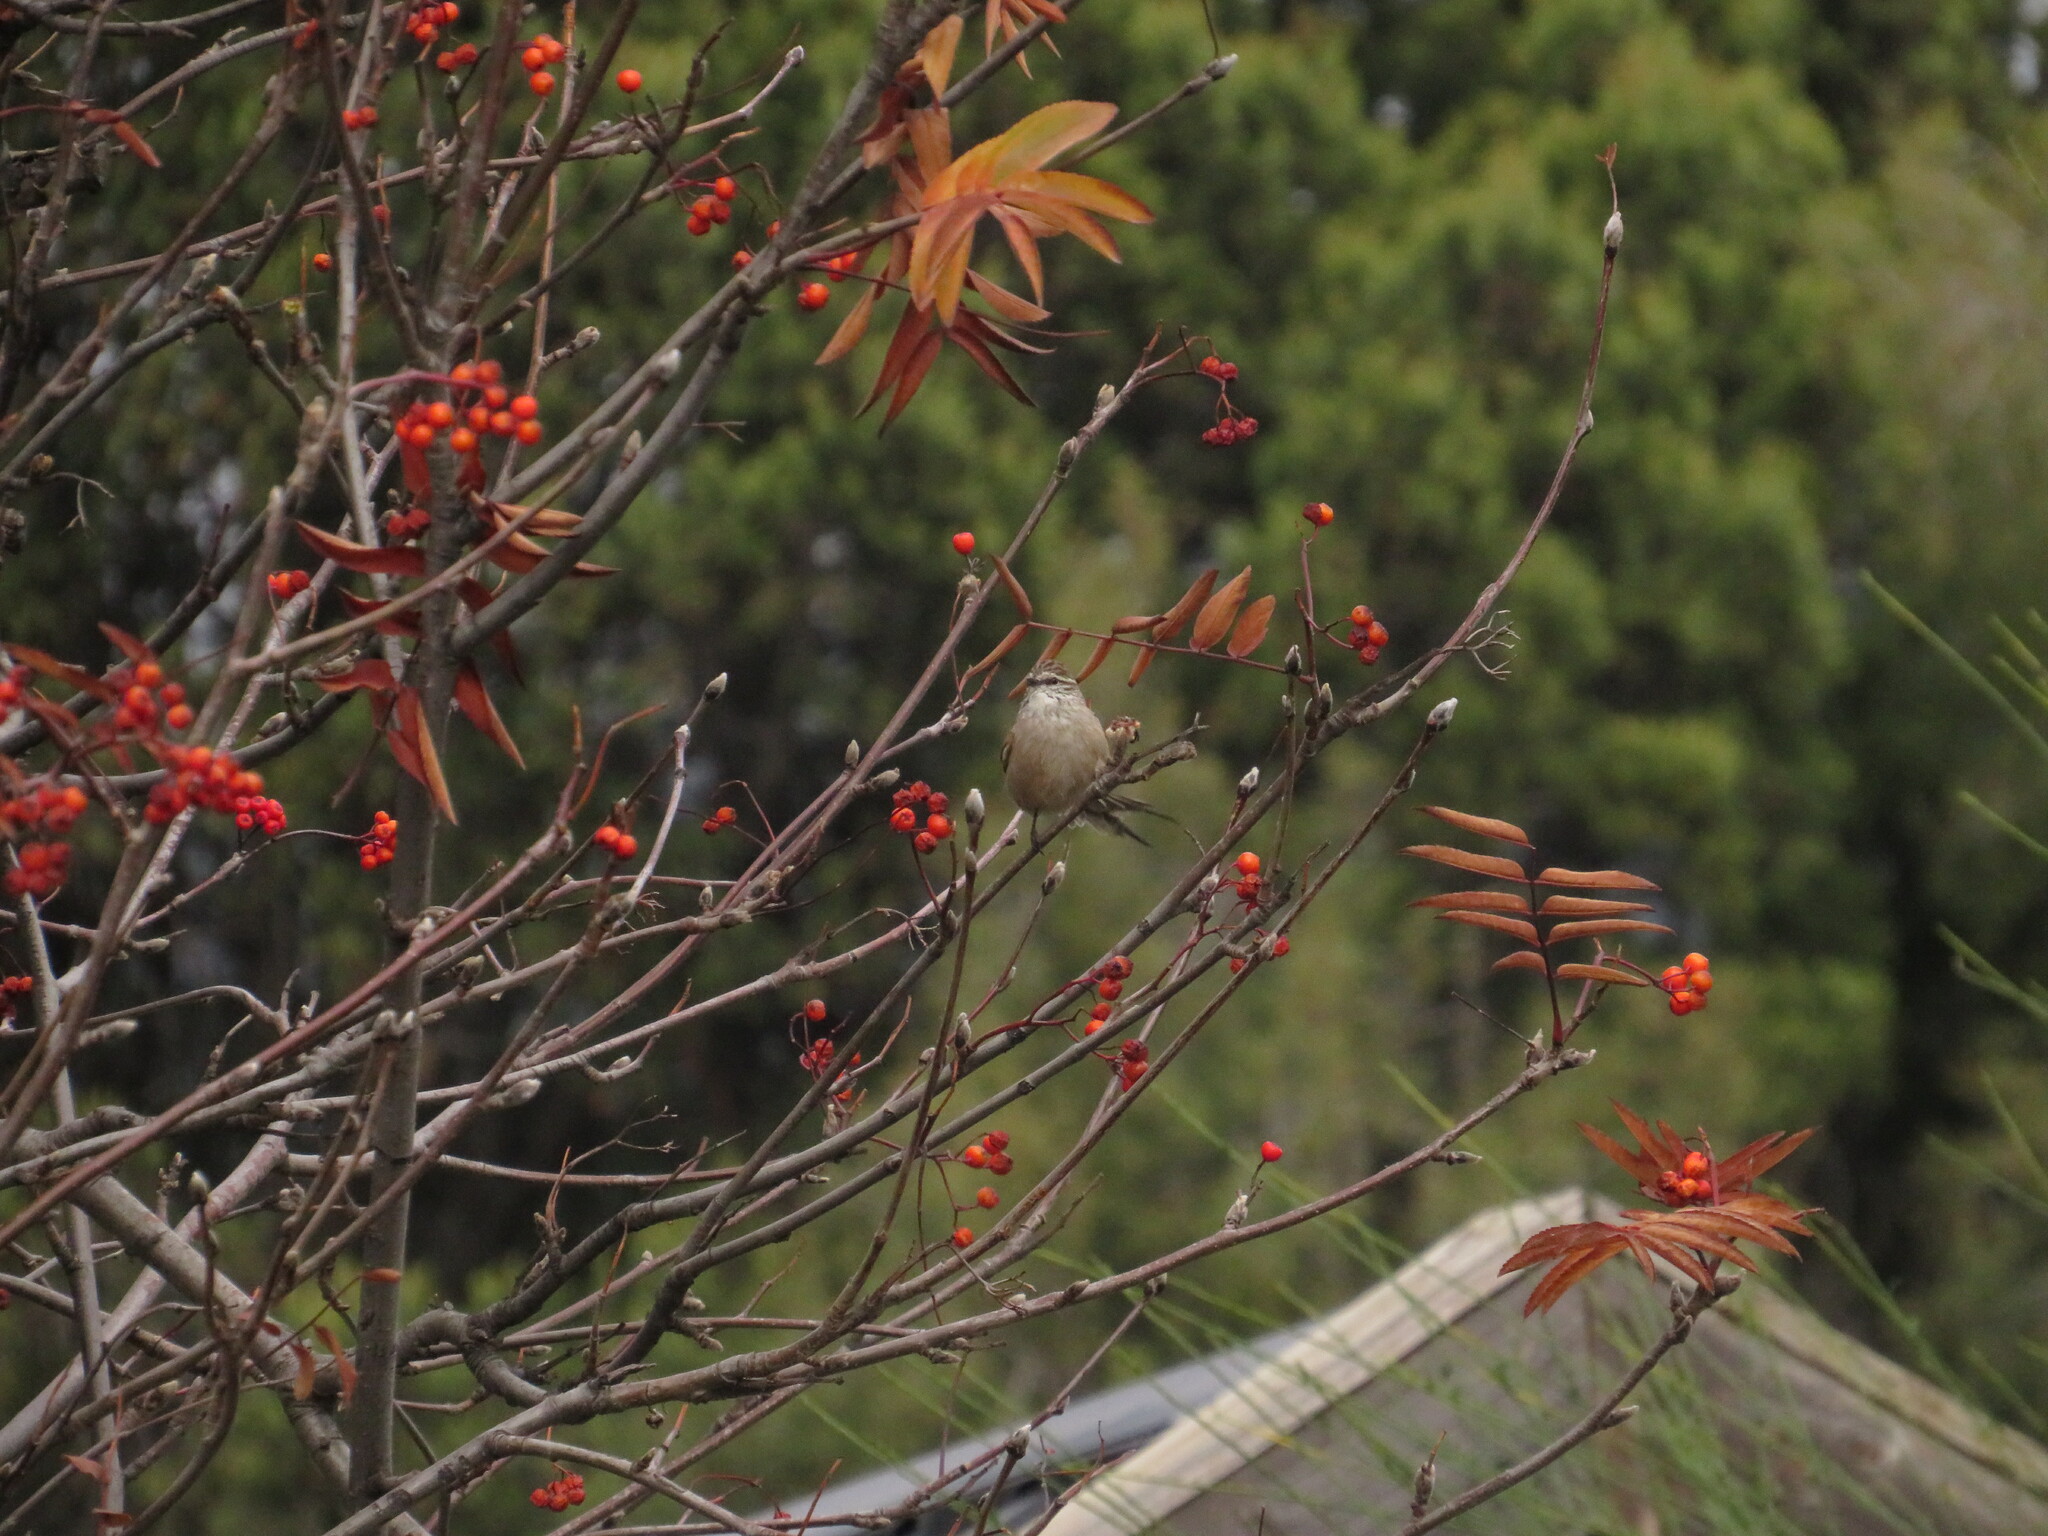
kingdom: Animalia
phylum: Chordata
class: Aves
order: Passeriformes
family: Furnariidae
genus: Leptasthenura
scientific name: Leptasthenura aegithaloides
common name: Plain-mantled tit-spinetail
